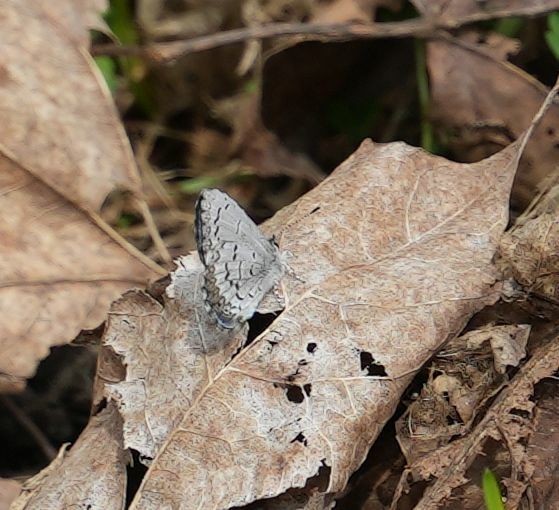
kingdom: Animalia
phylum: Arthropoda
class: Insecta
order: Lepidoptera
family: Lycaenidae
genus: Celastrina
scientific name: Celastrina lucia
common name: Lucia azure
